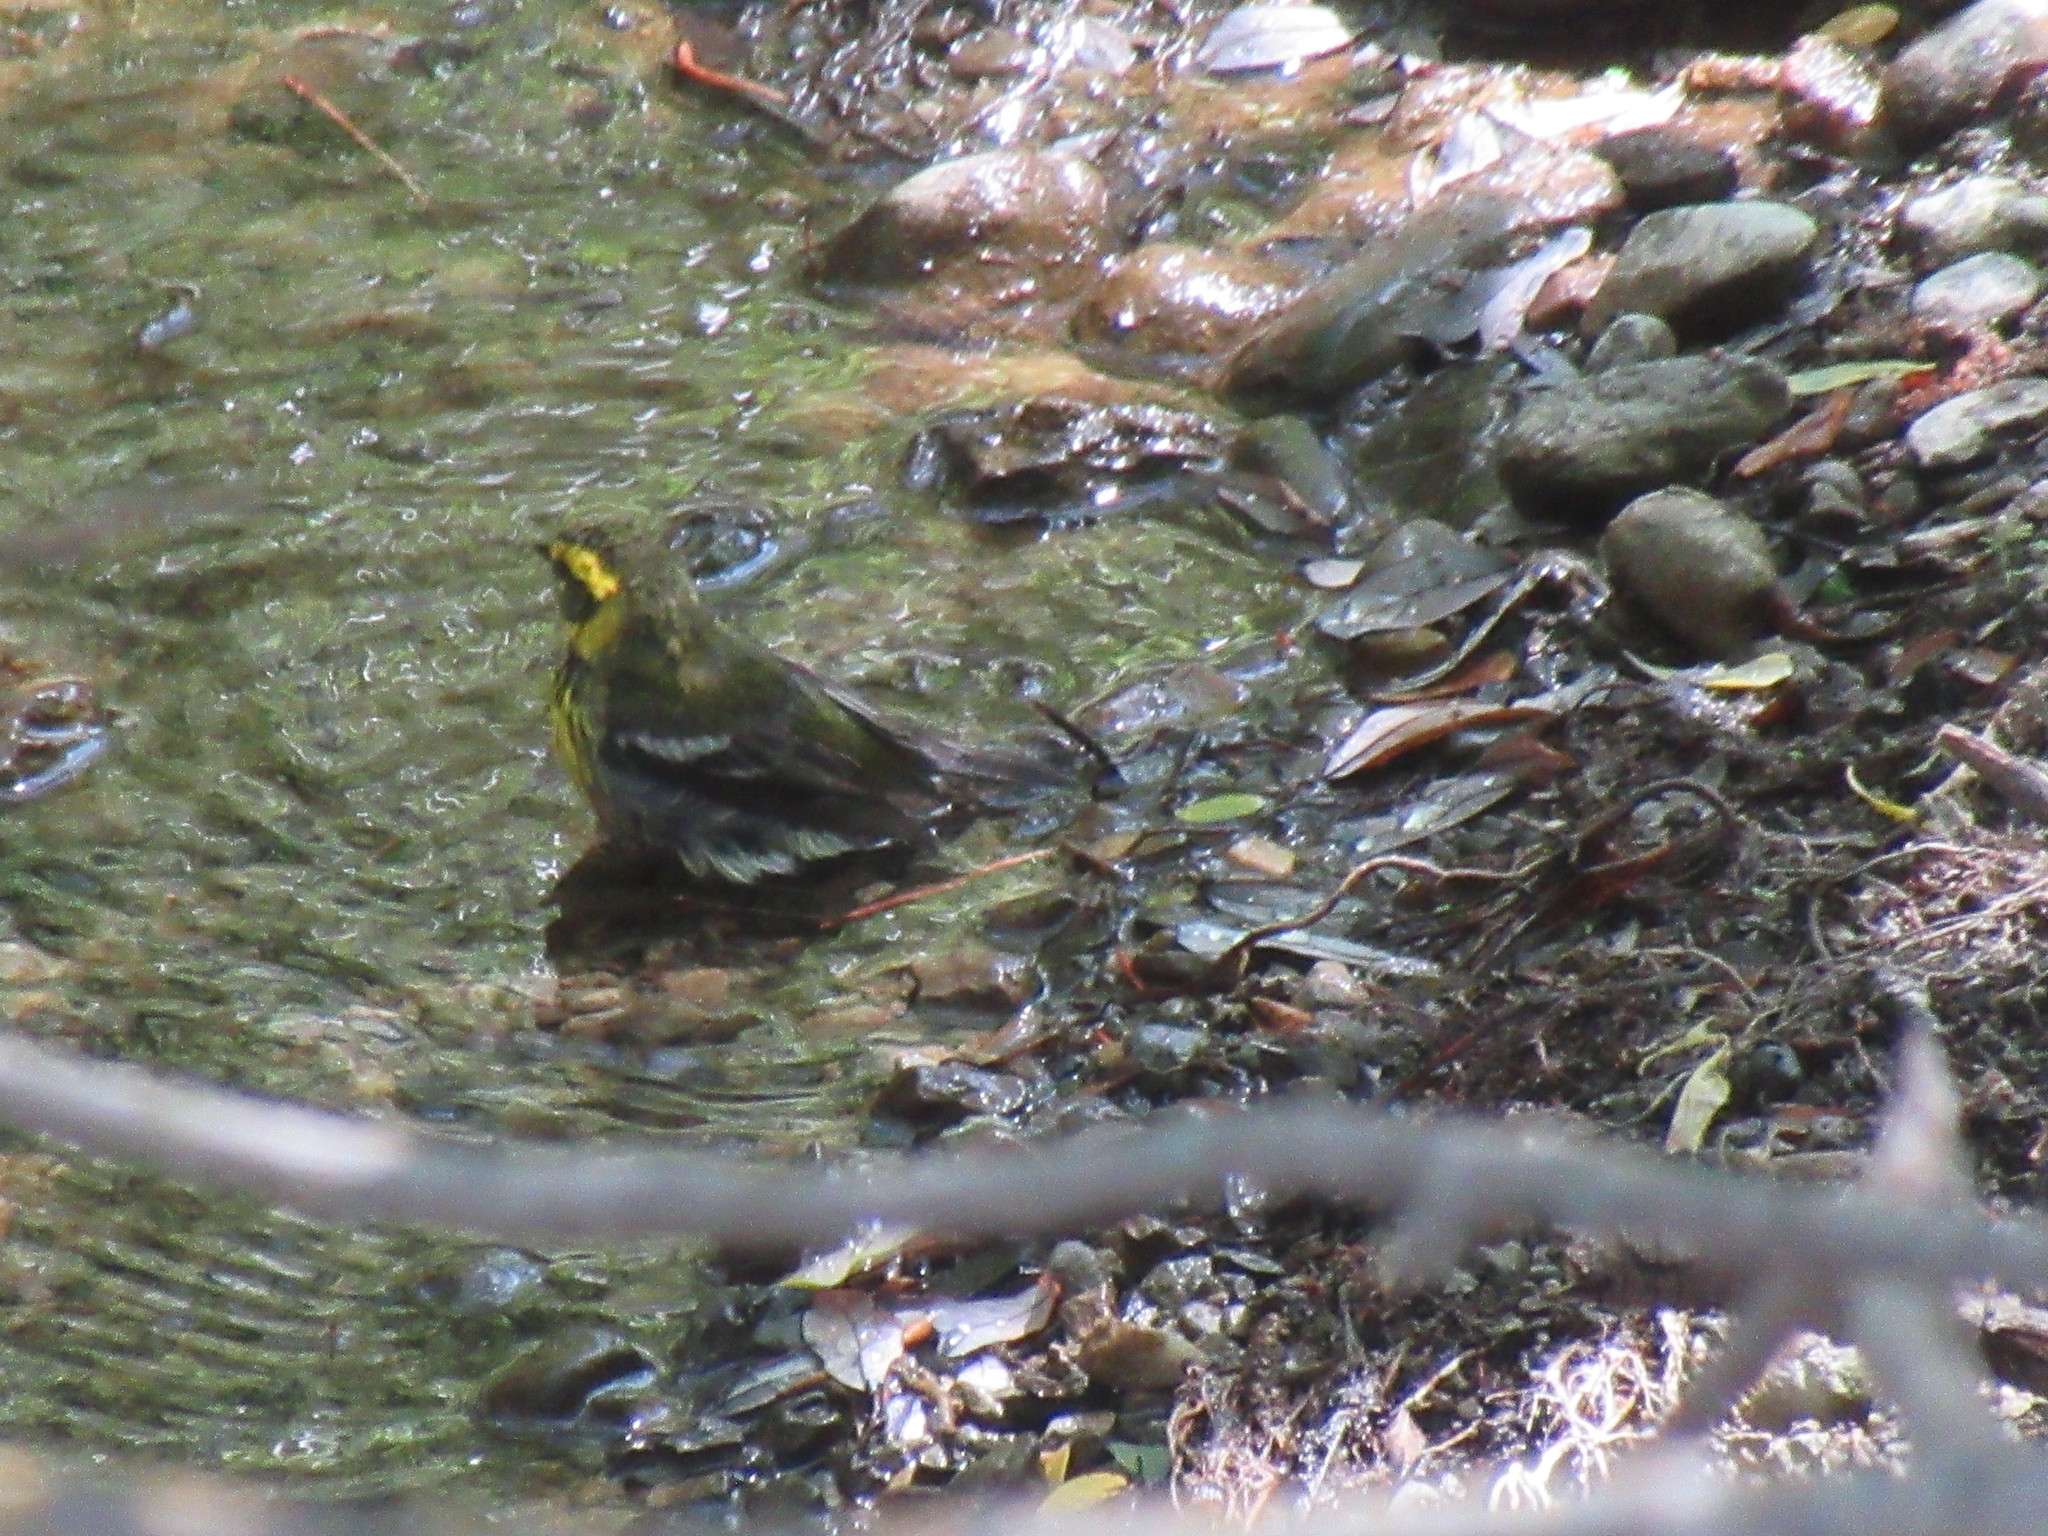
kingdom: Animalia
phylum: Chordata
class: Aves
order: Passeriformes
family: Parulidae
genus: Setophaga
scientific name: Setophaga townsendi
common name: Townsend's warbler
